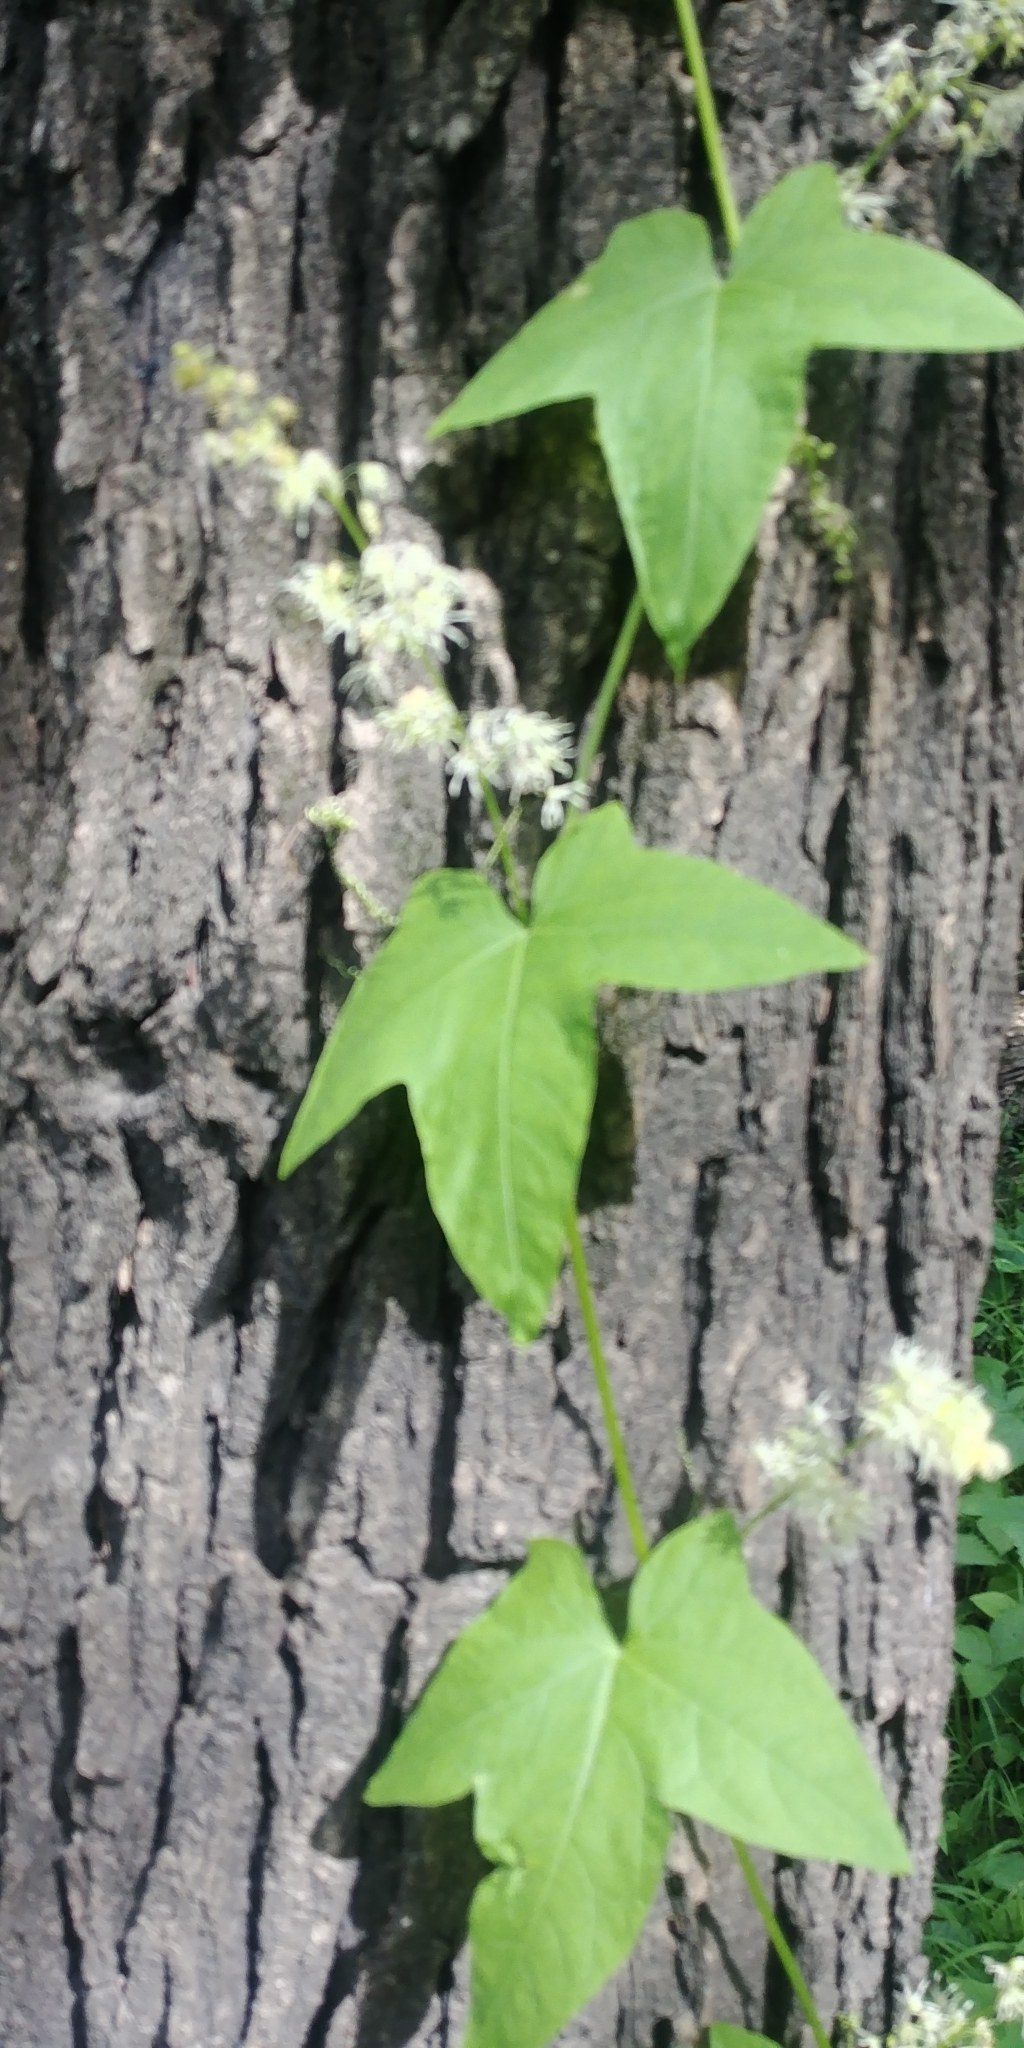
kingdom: Plantae
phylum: Tracheophyta
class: Magnoliopsida
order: Cucurbitales
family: Cucurbitaceae
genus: Echinocystis
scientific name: Echinocystis lobata
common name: Wild cucumber
